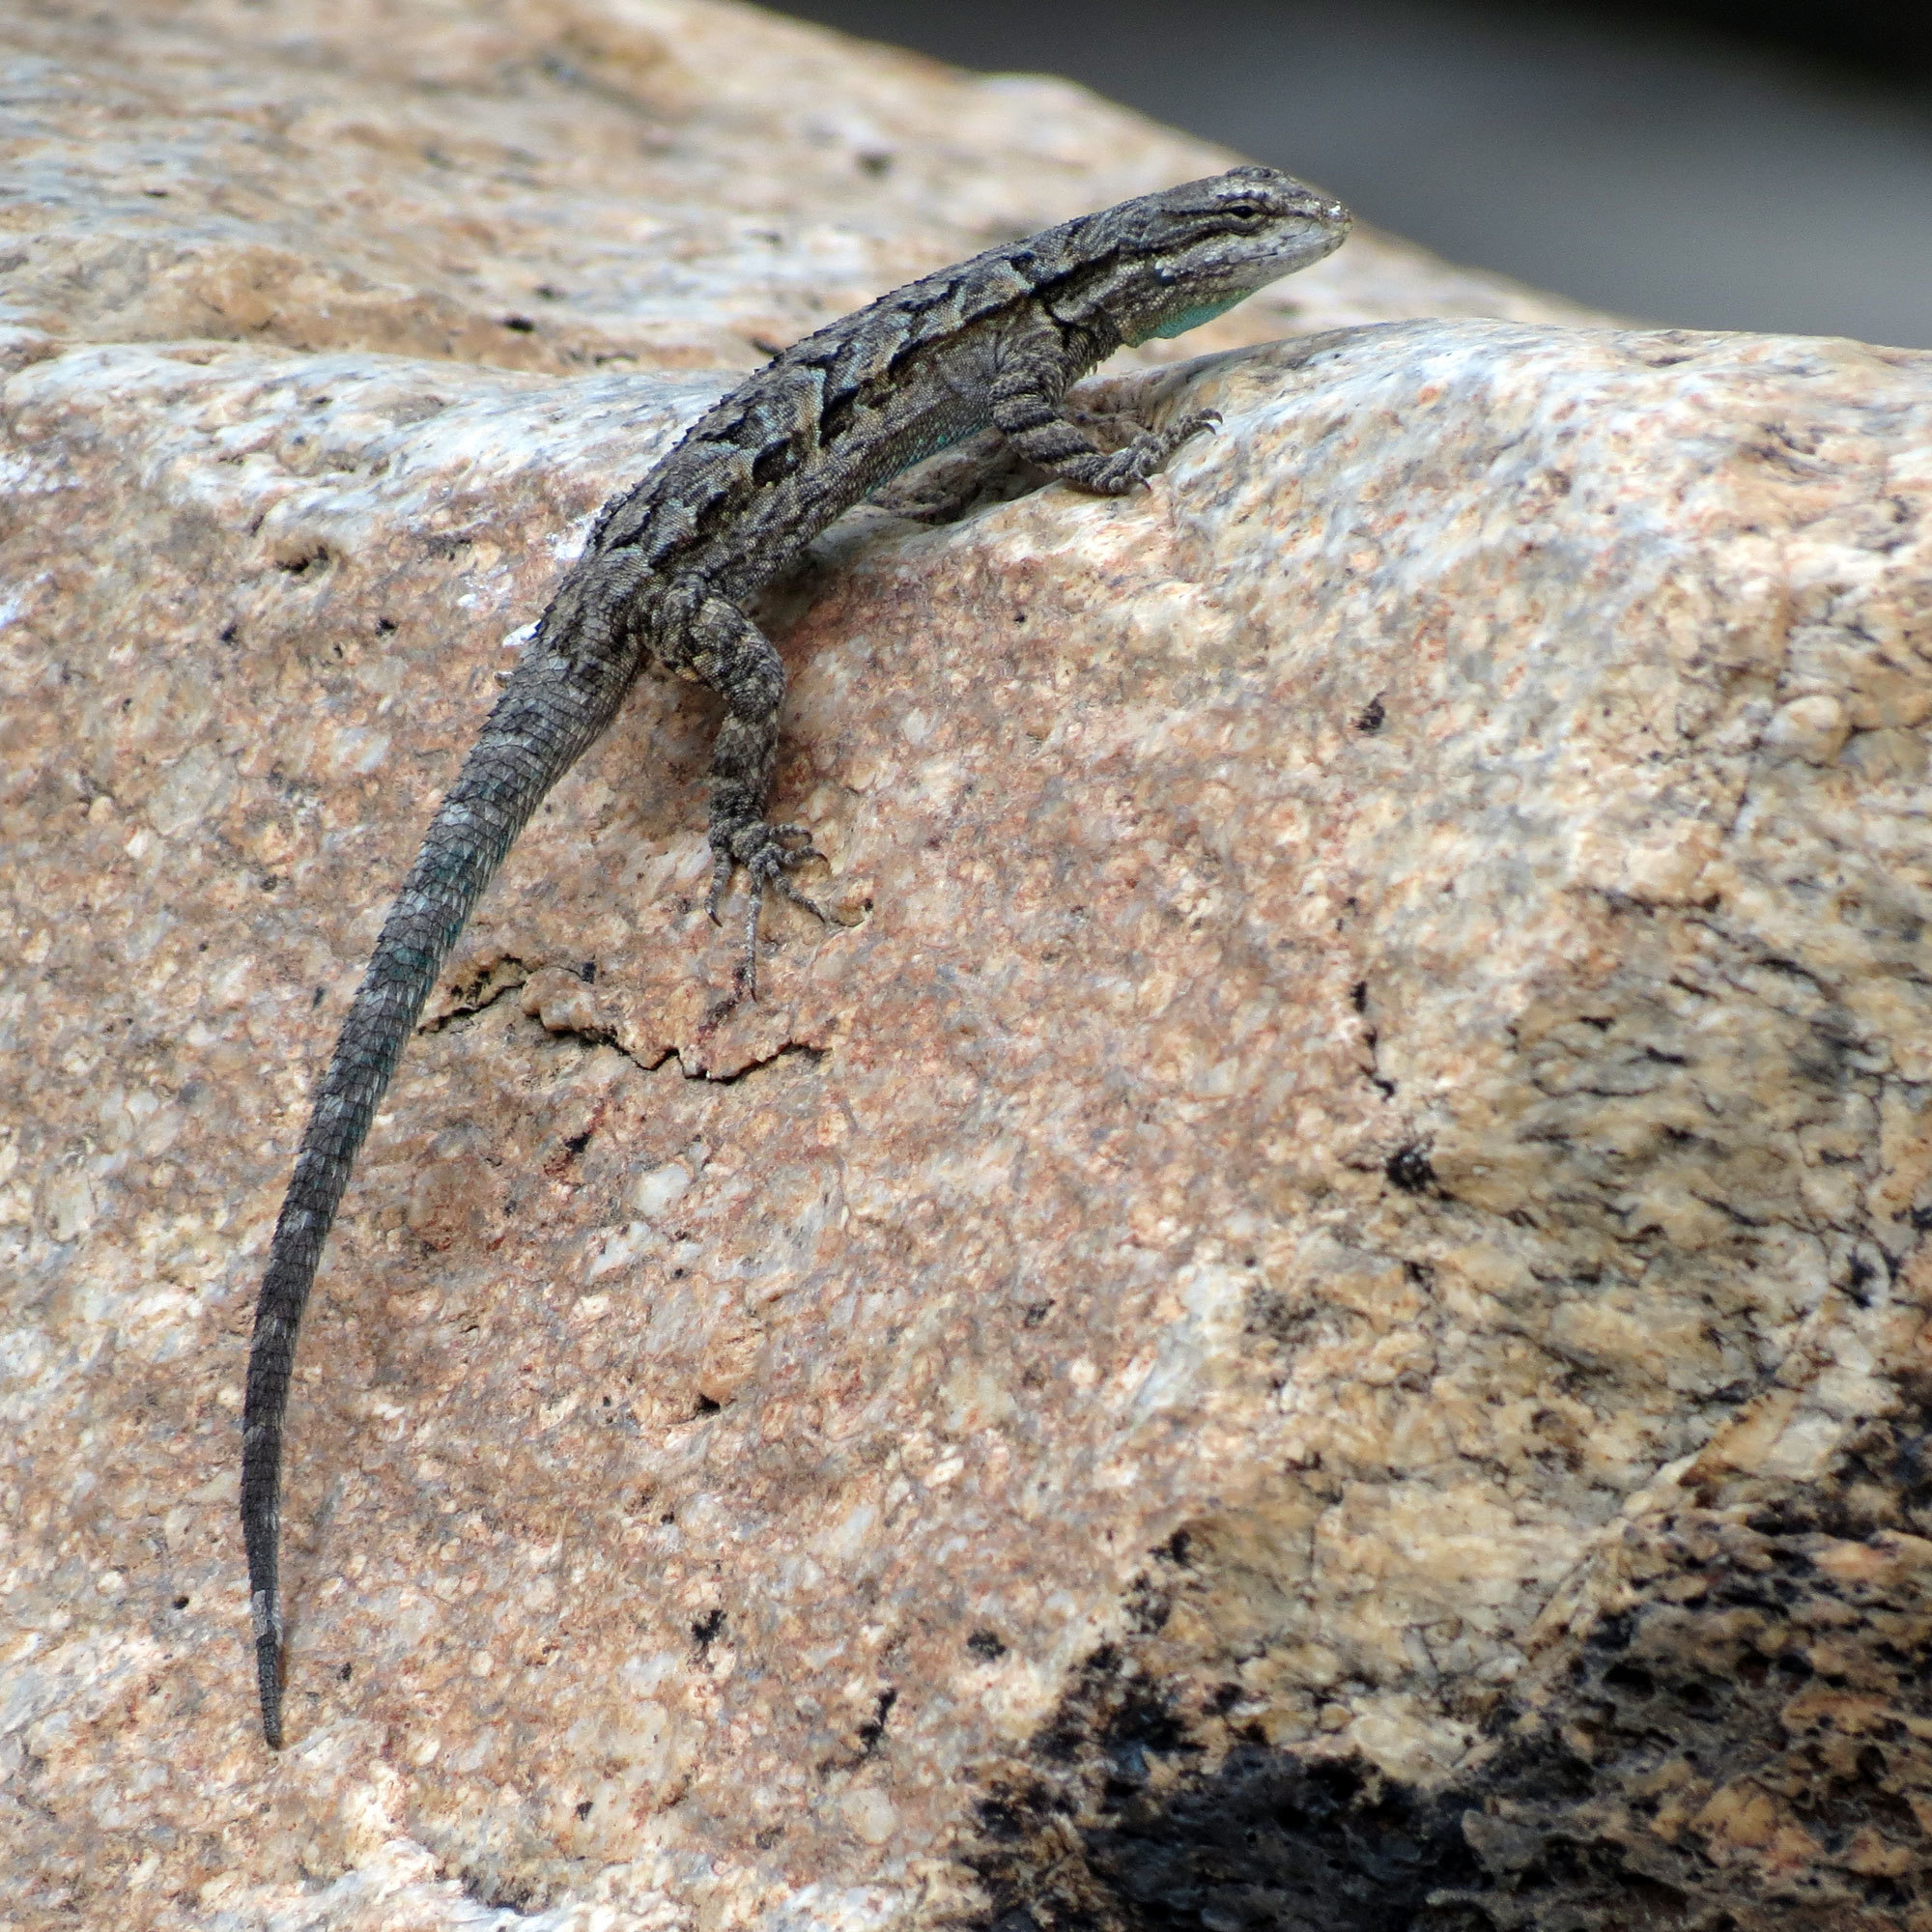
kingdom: Animalia
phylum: Chordata
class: Squamata
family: Phrynosomatidae
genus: Urosaurus
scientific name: Urosaurus ornatus
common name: Ornate tree lizard
